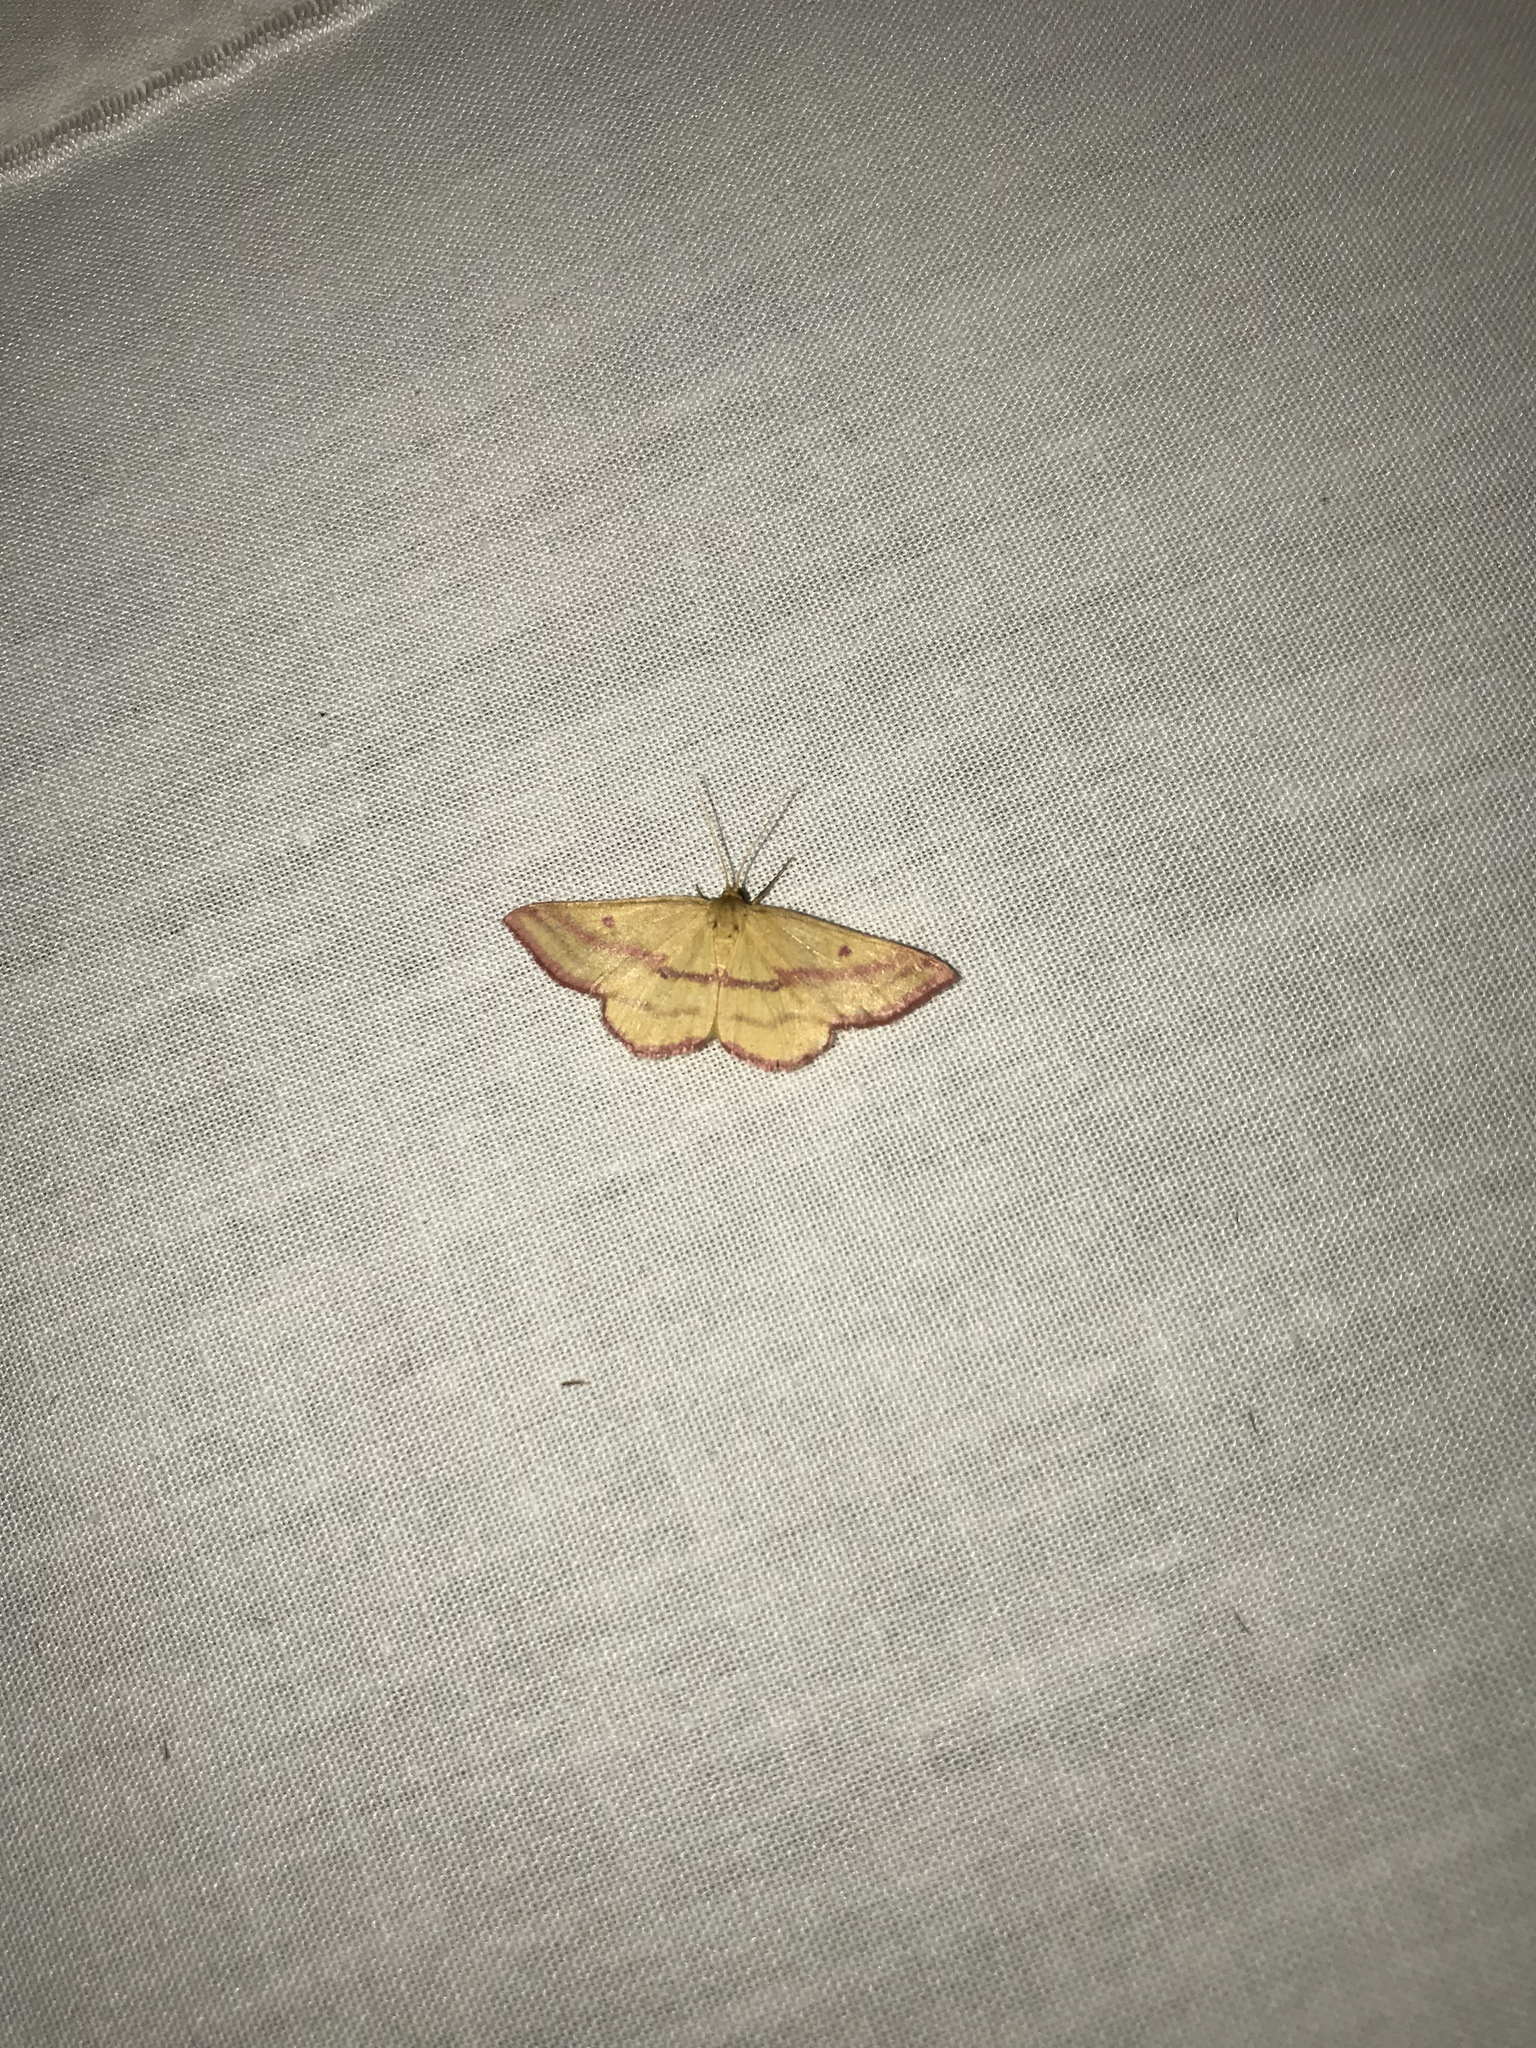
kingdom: Animalia
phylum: Arthropoda
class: Insecta
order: Lepidoptera
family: Geometridae
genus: Haematopis
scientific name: Haematopis grataria
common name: Chickweed geometer
